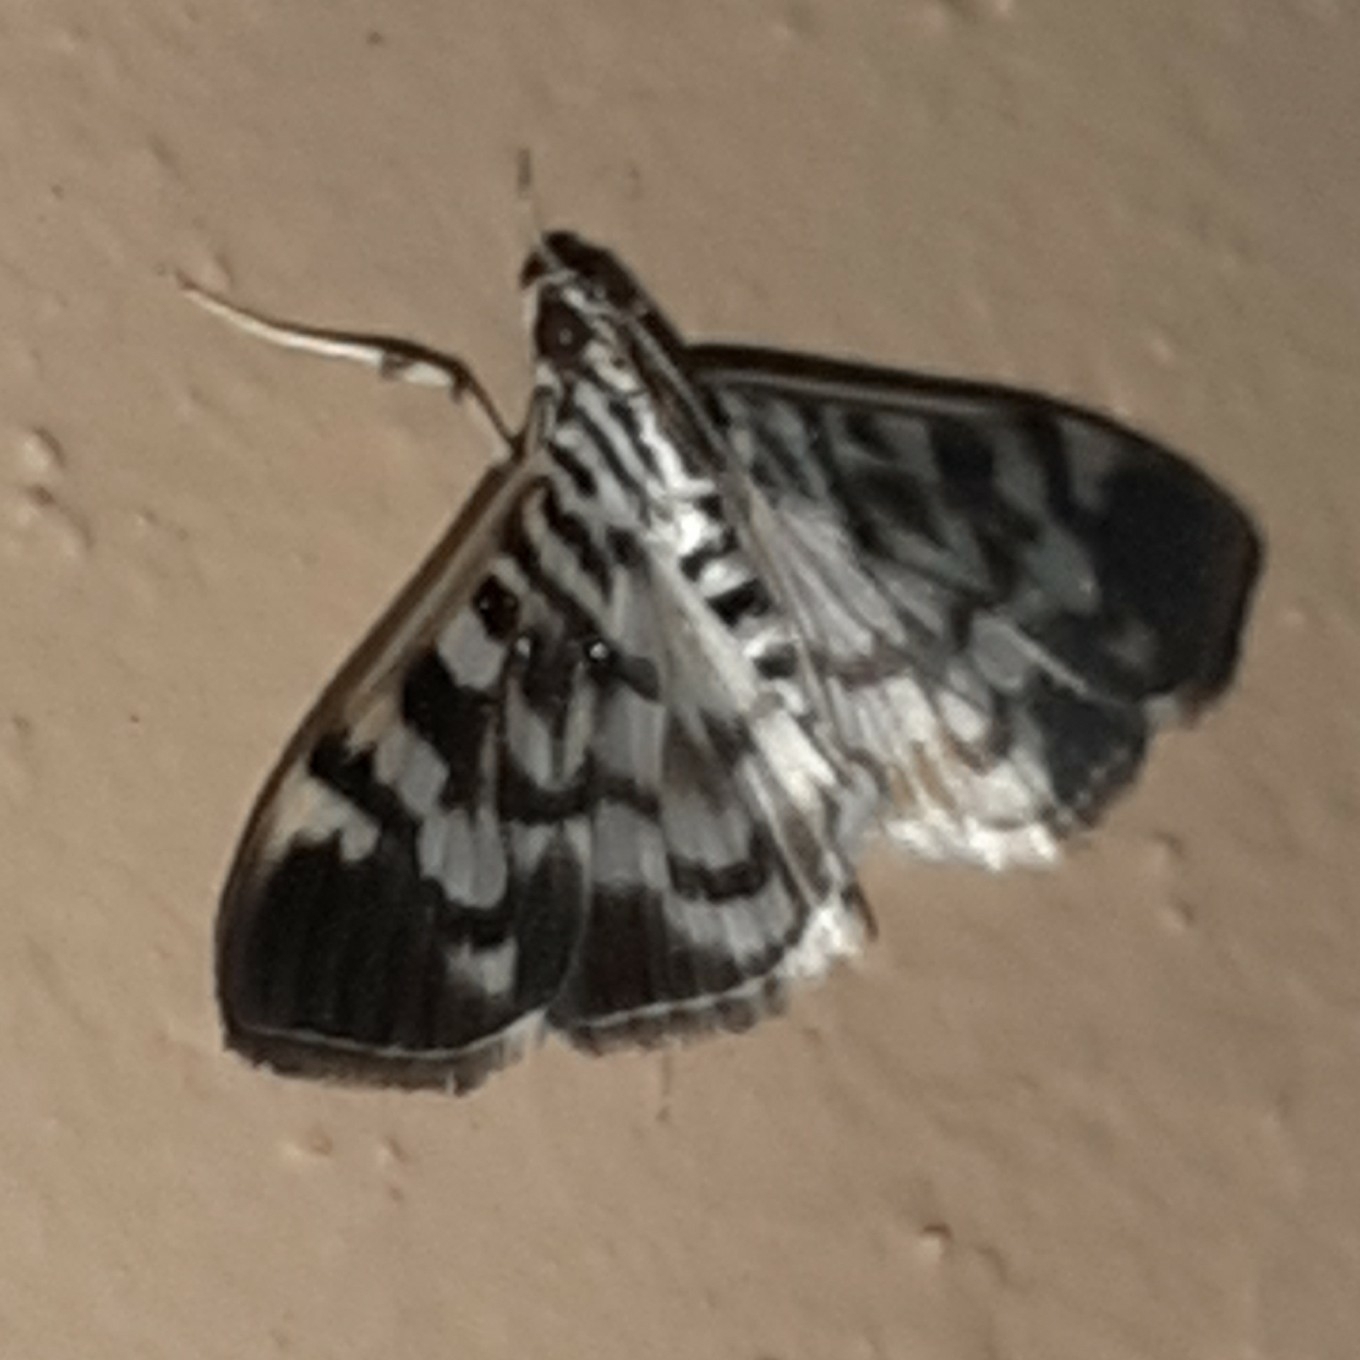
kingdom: Animalia
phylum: Arthropoda
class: Insecta
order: Lepidoptera
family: Crambidae
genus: Zebronia
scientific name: Zebronia
